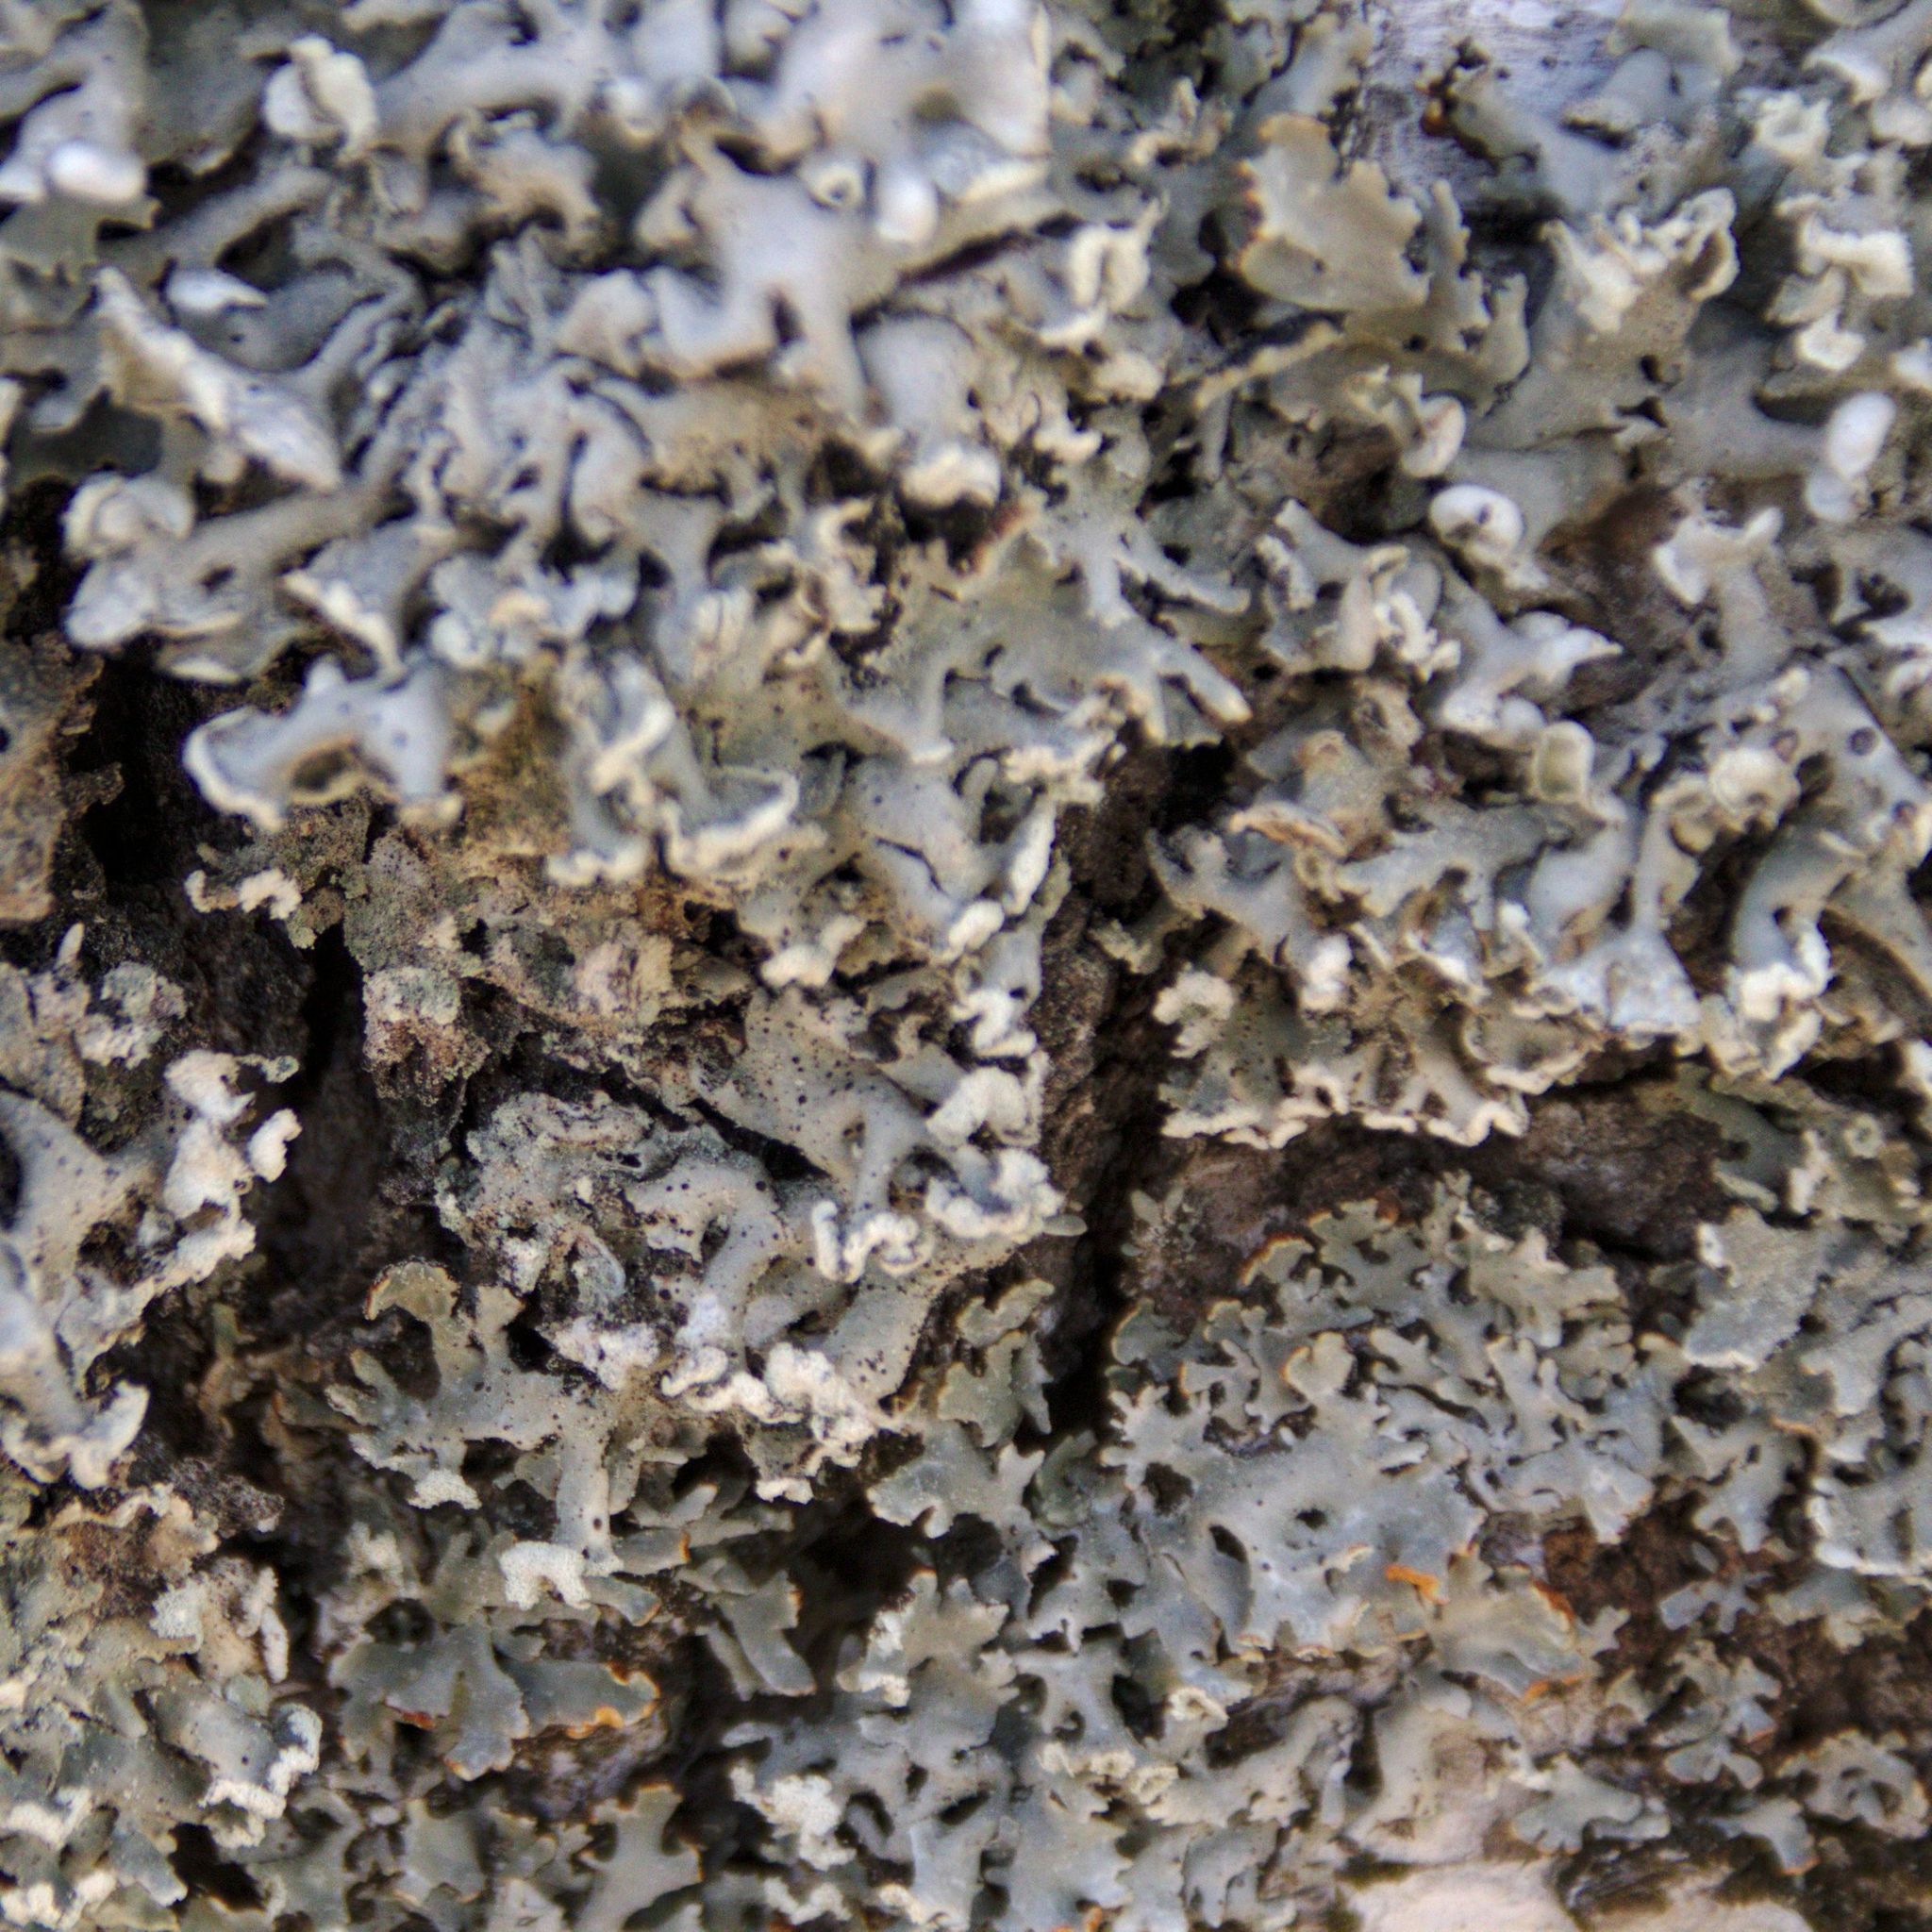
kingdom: Fungi
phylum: Ascomycota
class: Lecanoromycetes
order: Lecanorales
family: Parmeliaceae
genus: Hypogymnia
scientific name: Hypogymnia physodes
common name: Dark crottle
